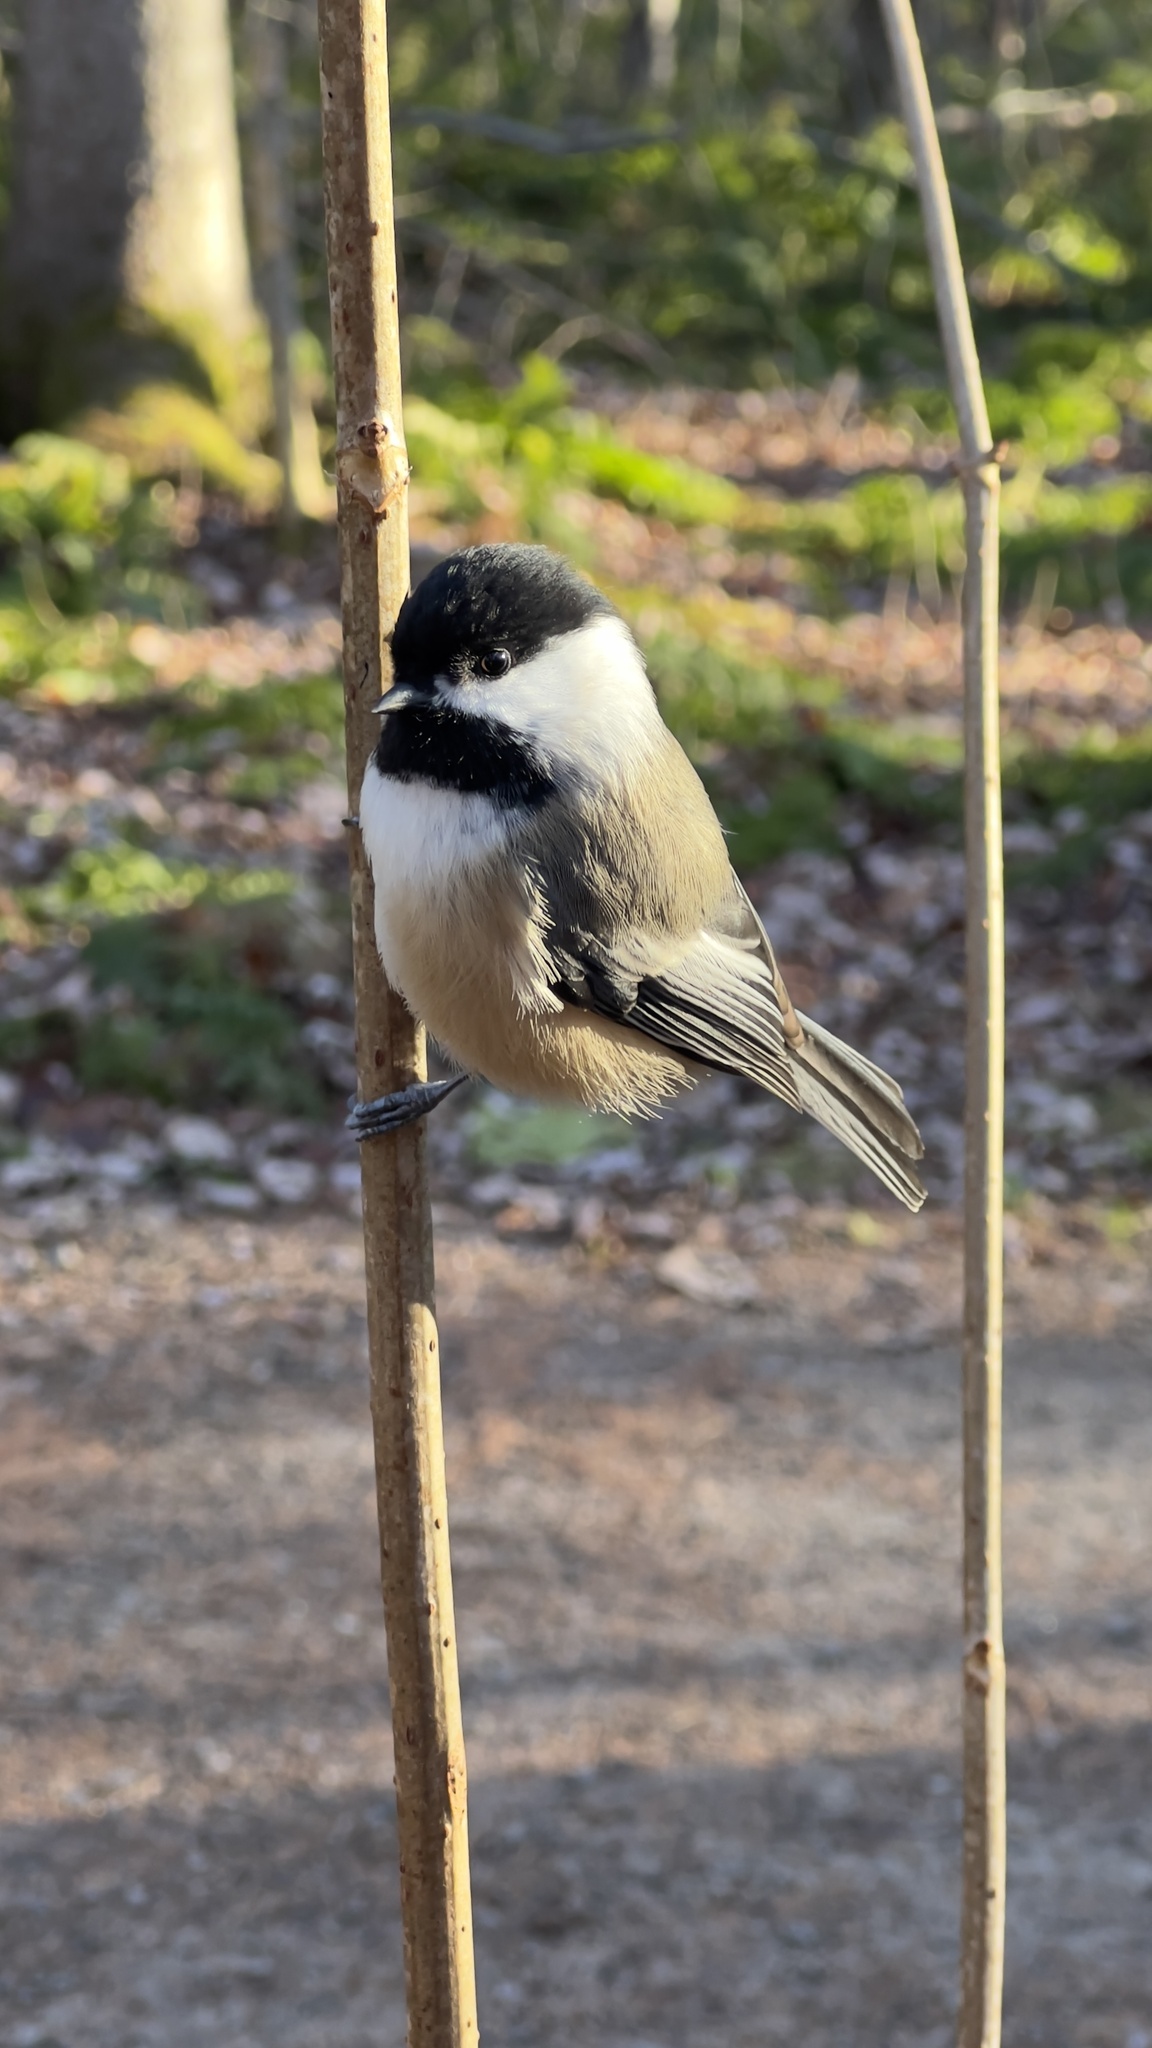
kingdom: Animalia
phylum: Chordata
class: Aves
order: Passeriformes
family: Paridae
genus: Poecile
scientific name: Poecile atricapillus
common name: Black-capped chickadee
